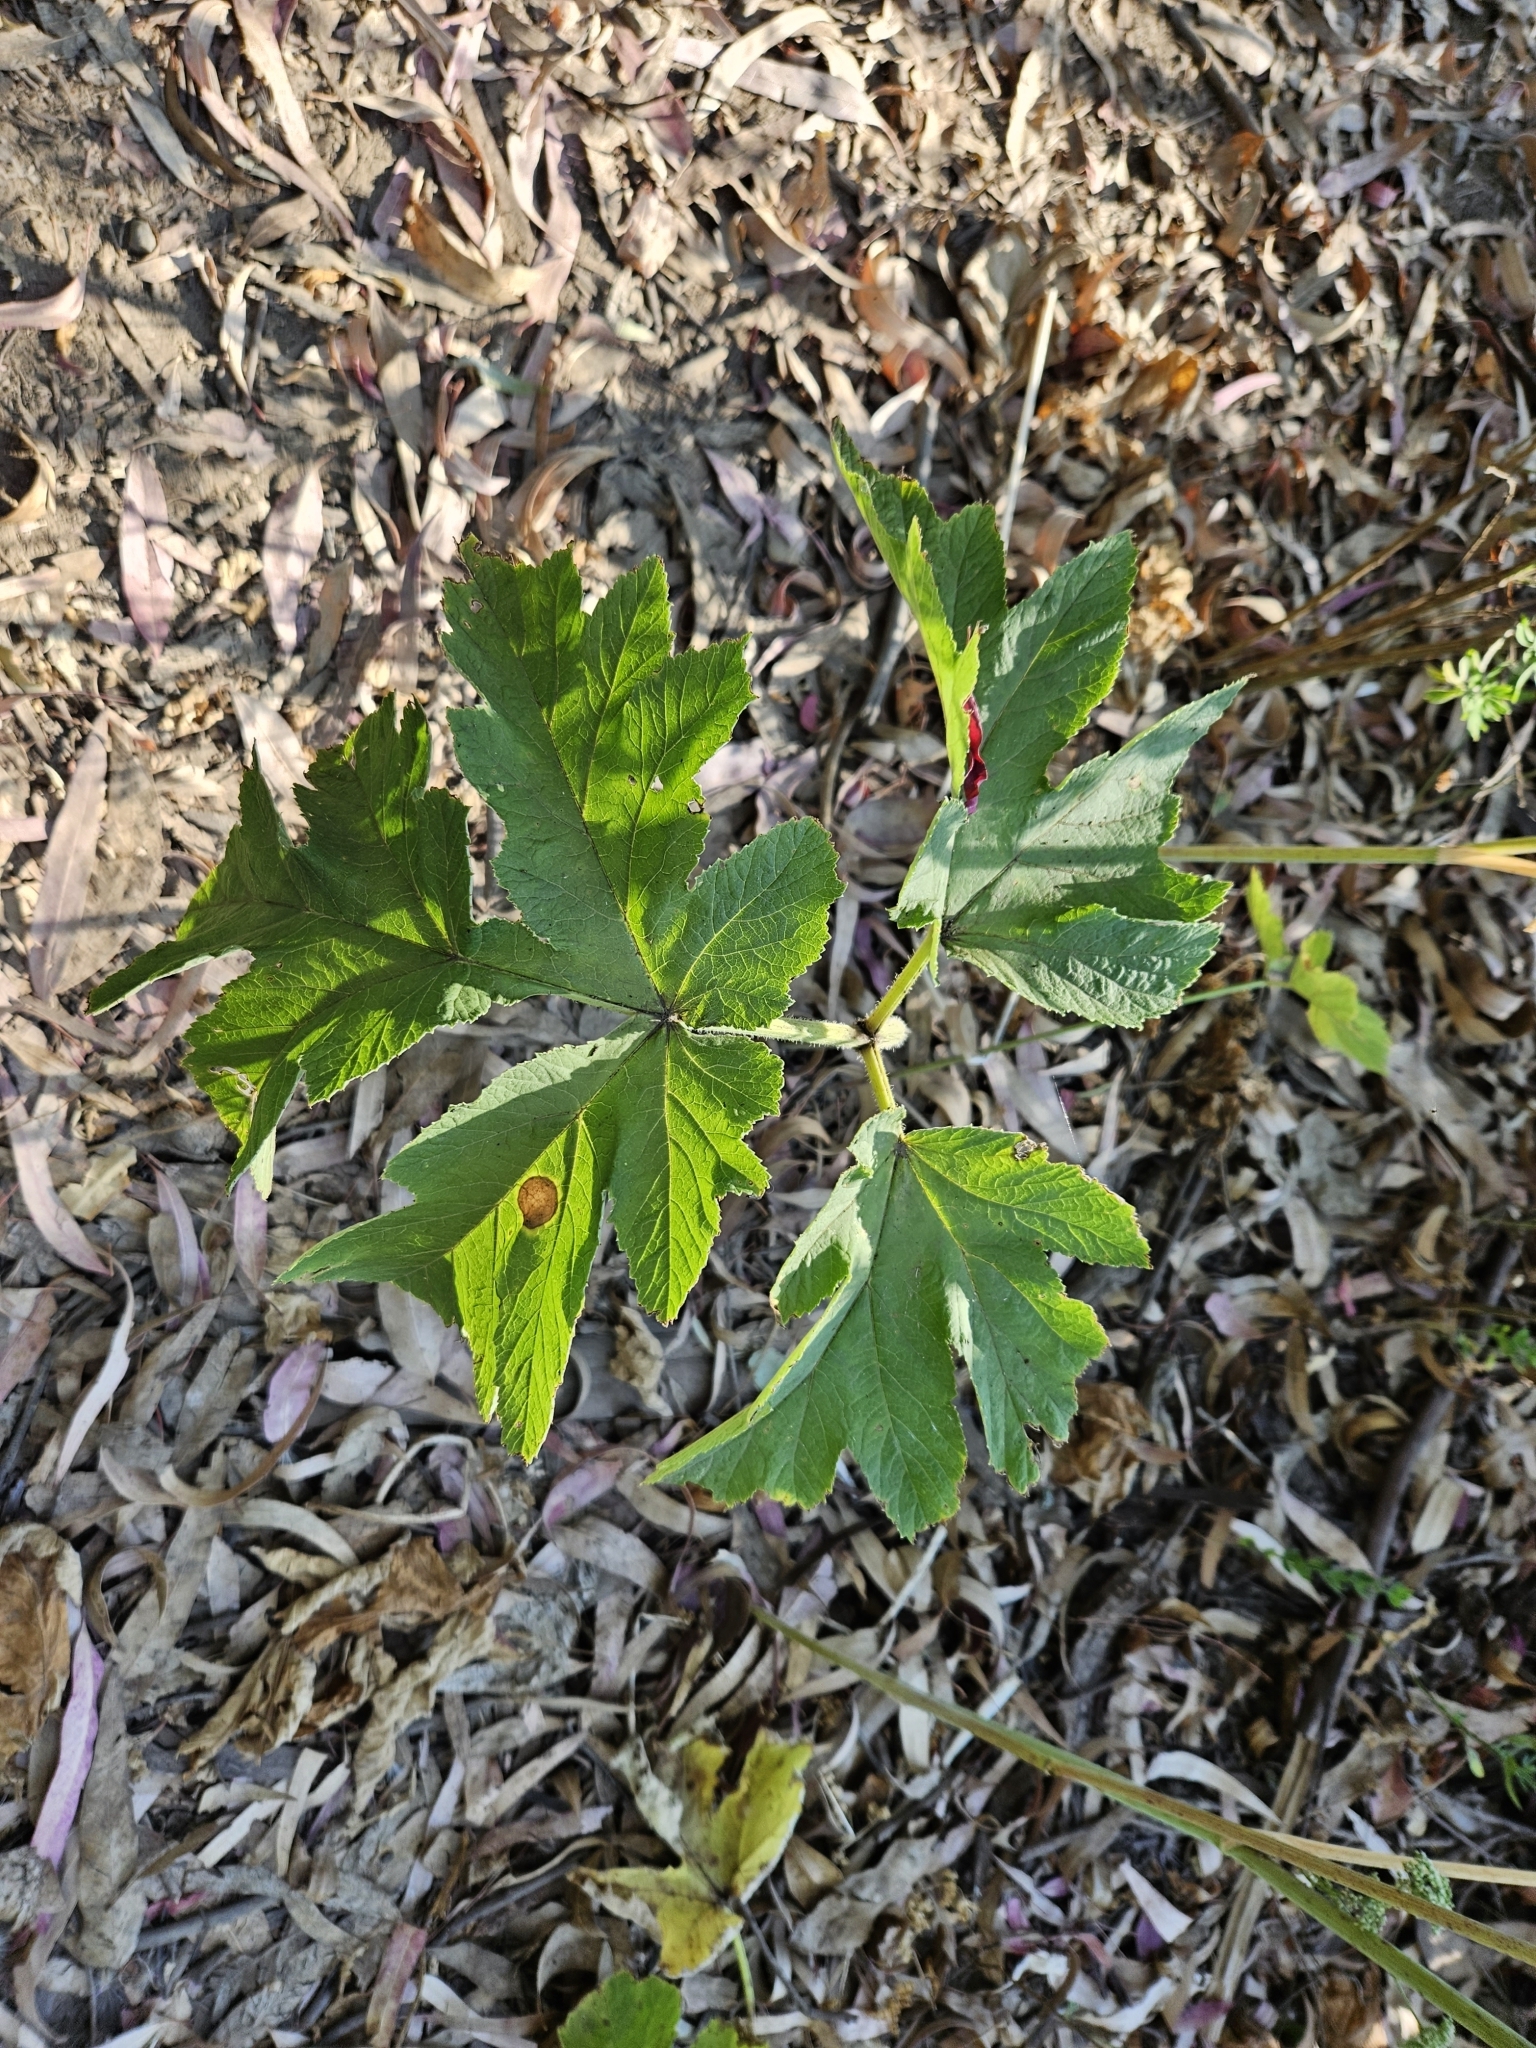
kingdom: Plantae
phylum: Tracheophyta
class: Magnoliopsida
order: Apiales
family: Apiaceae
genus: Heracleum
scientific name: Heracleum maximum
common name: American cow parsnip
